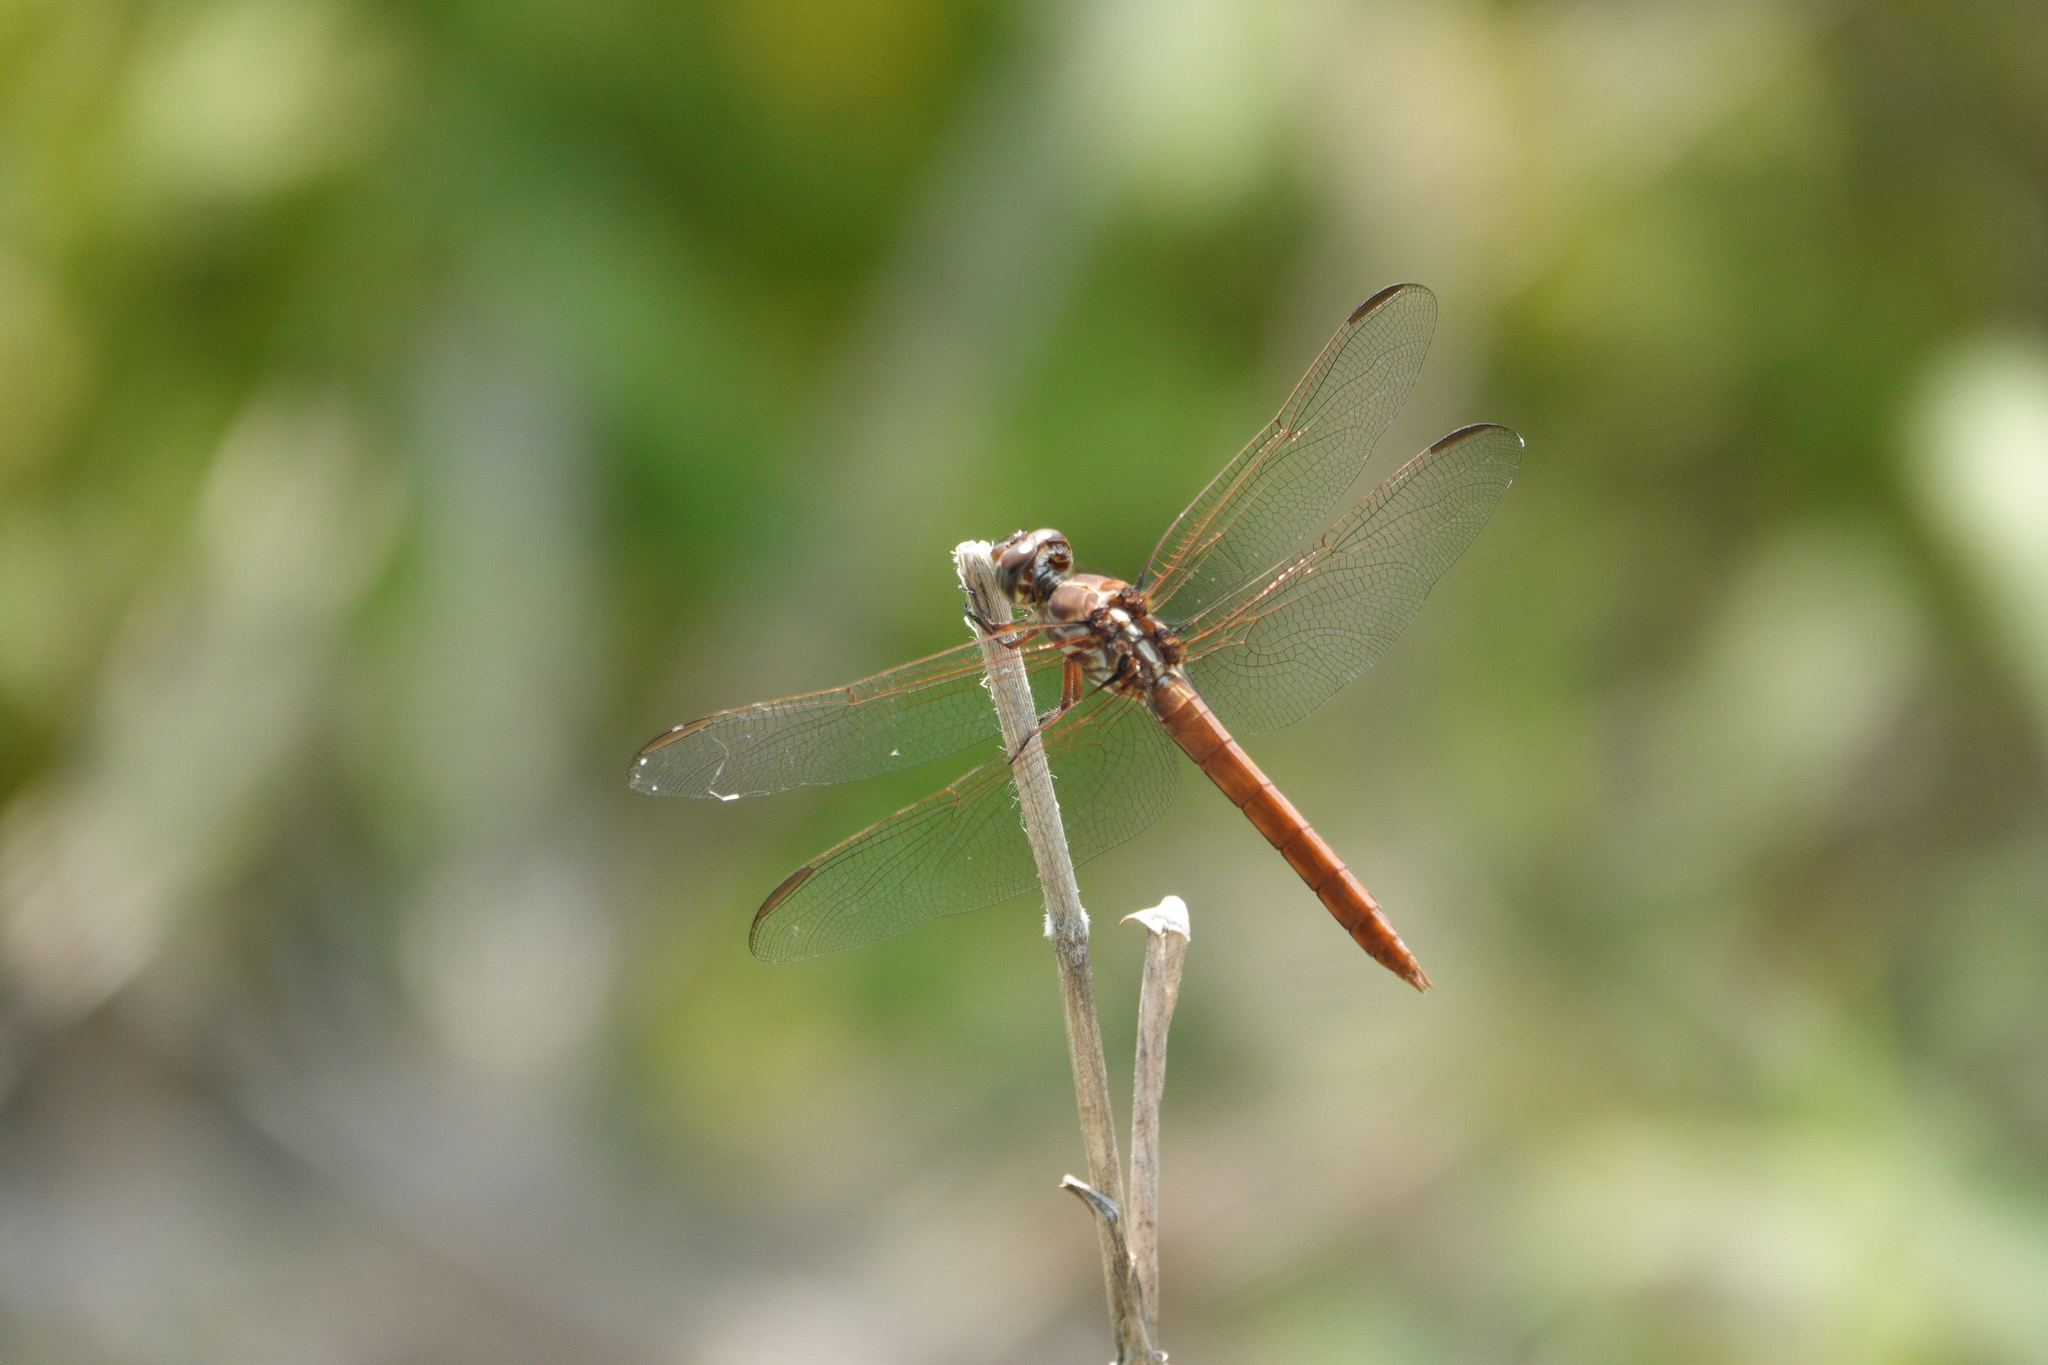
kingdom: Animalia
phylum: Arthropoda
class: Insecta
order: Odonata
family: Libellulidae
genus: Orthemis
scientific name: Orthemis ferruginea
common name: Roseate skimmer
